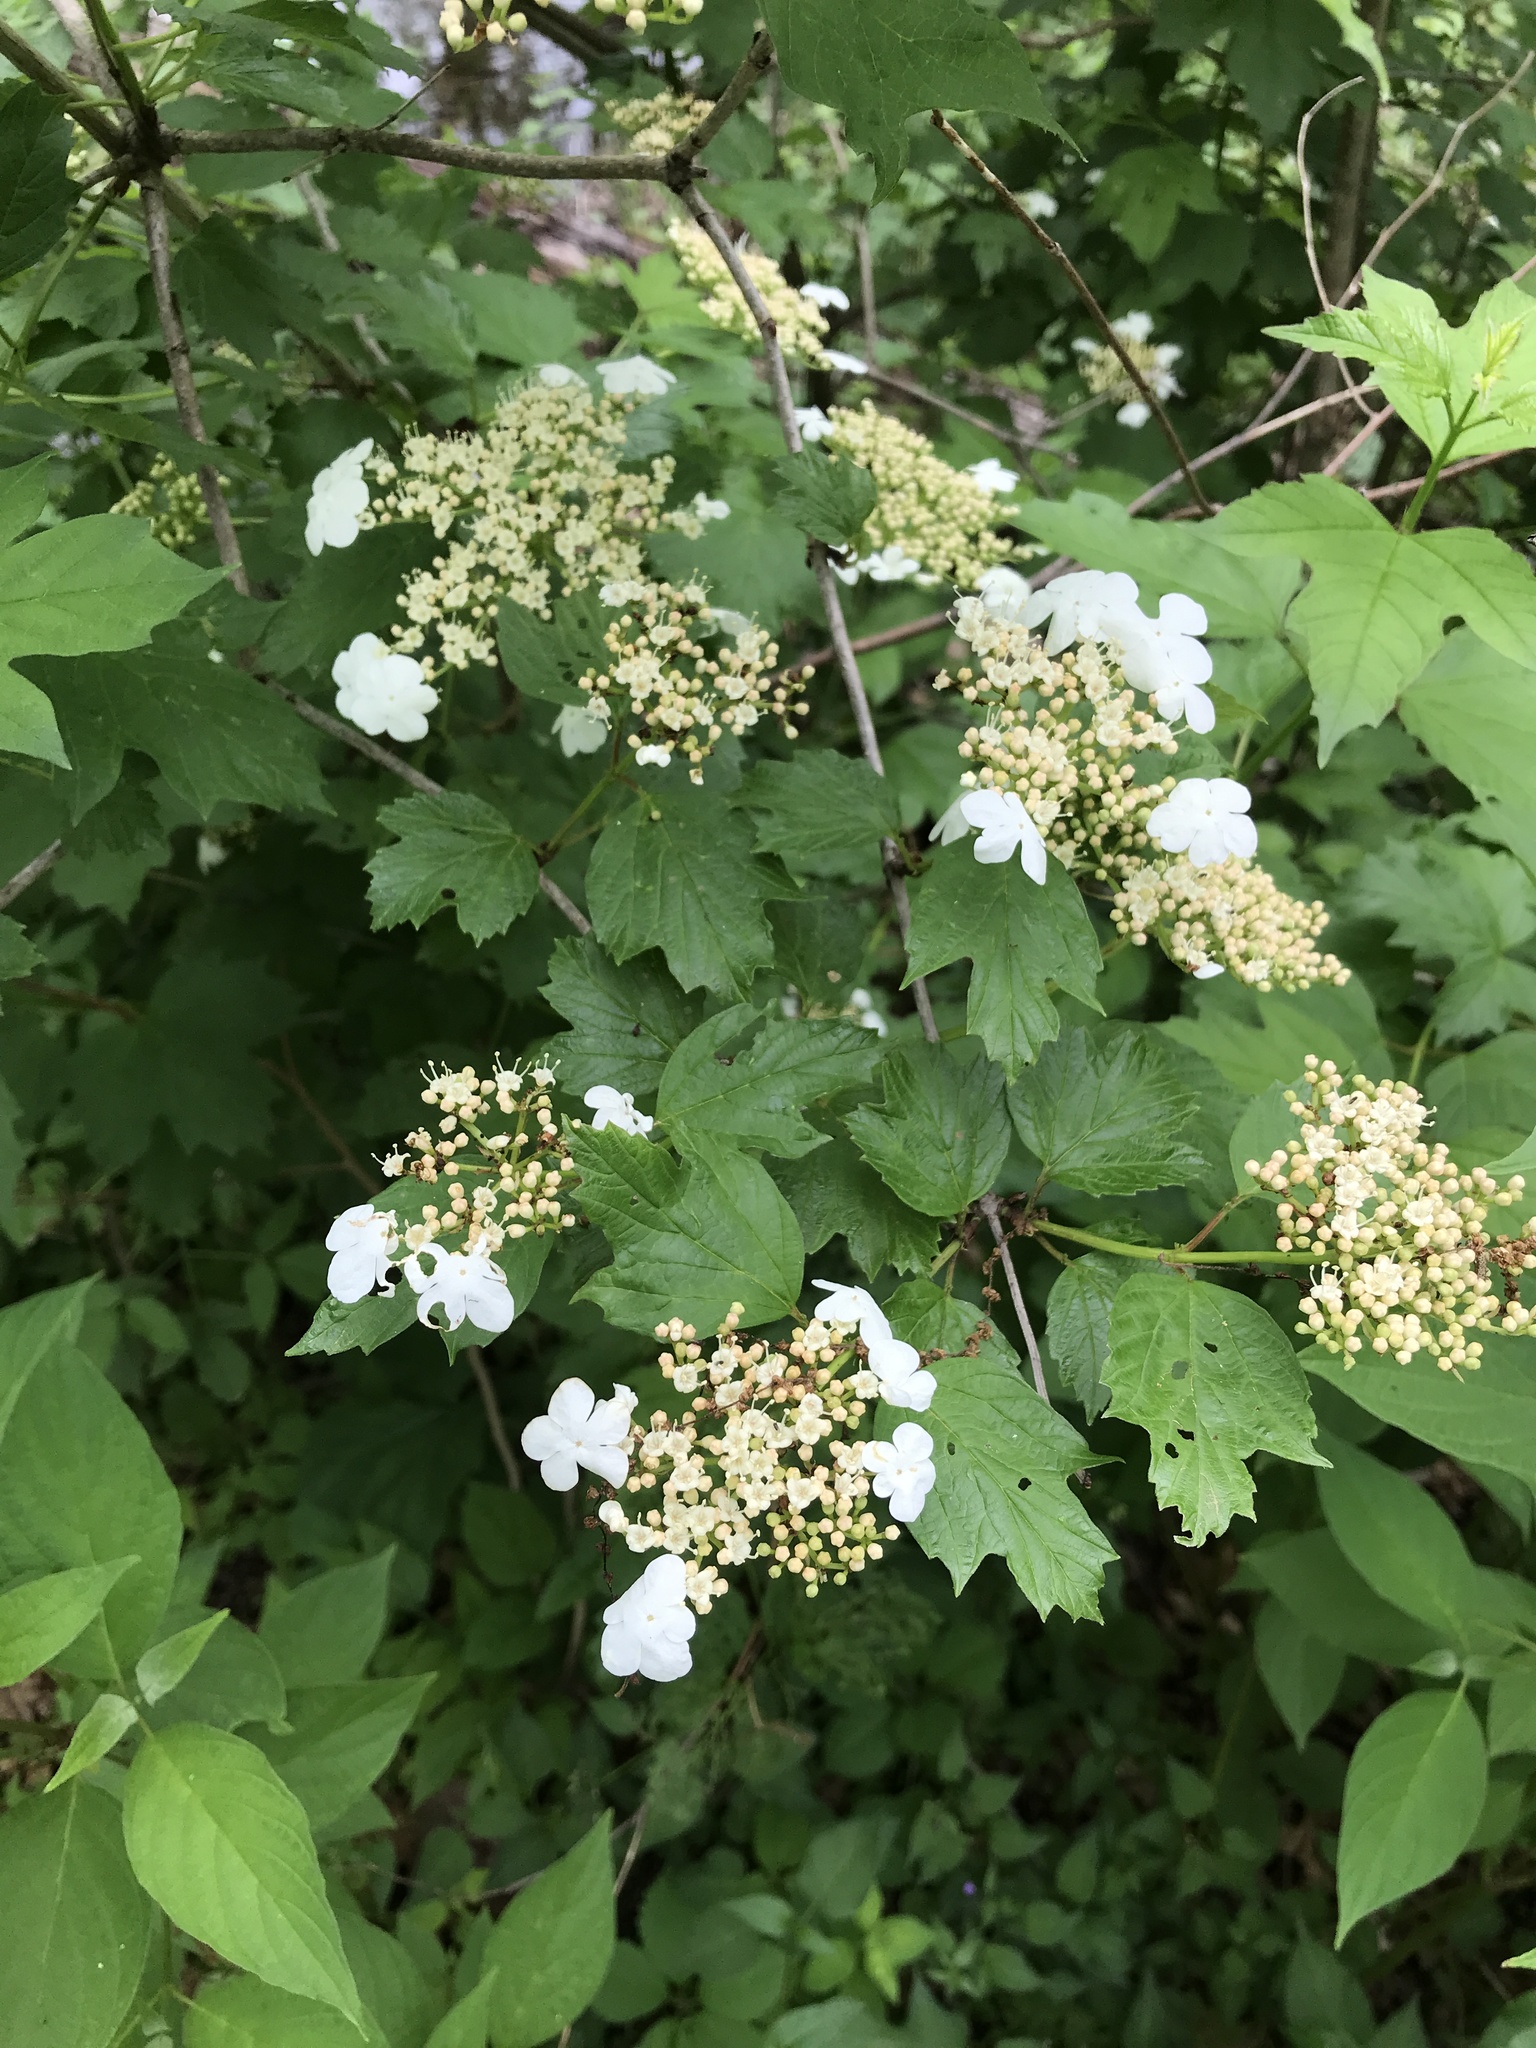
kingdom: Plantae
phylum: Tracheophyta
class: Magnoliopsida
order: Dipsacales
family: Viburnaceae
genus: Viburnum
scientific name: Viburnum opulus
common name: Guelder-rose
